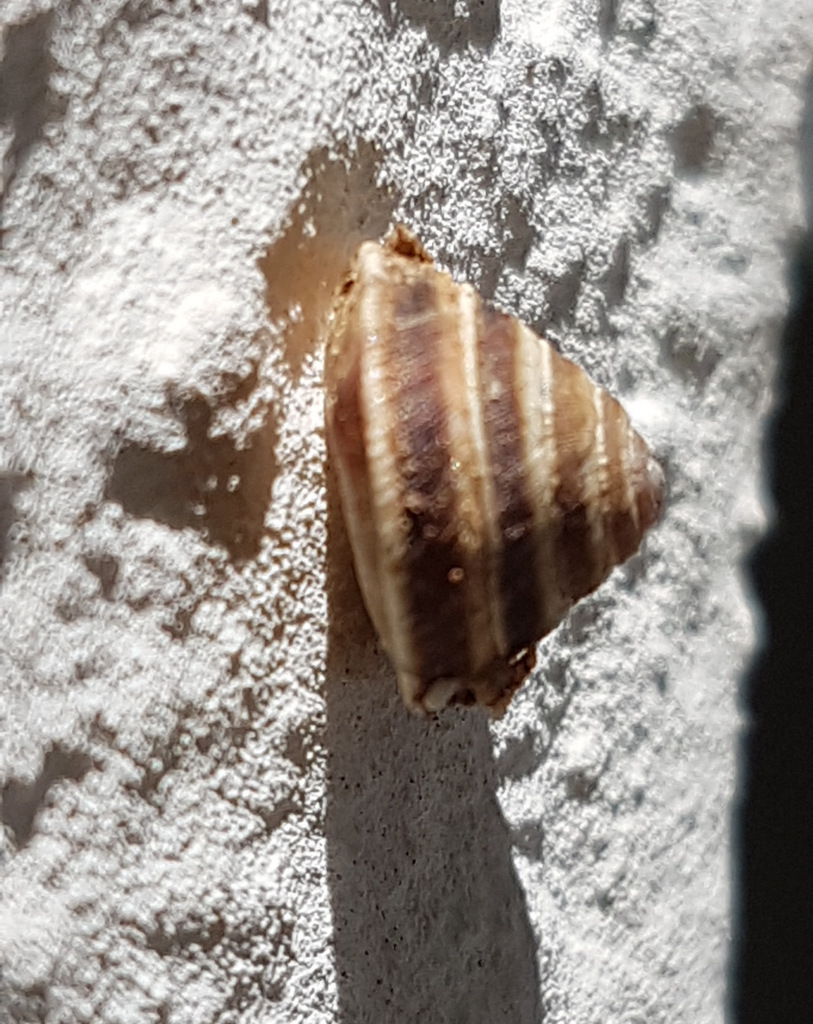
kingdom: Animalia
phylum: Mollusca
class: Gastropoda
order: Stylommatophora
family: Geomitridae
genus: Trochoidea
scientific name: Trochoidea elegans
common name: Elegant helicellid
